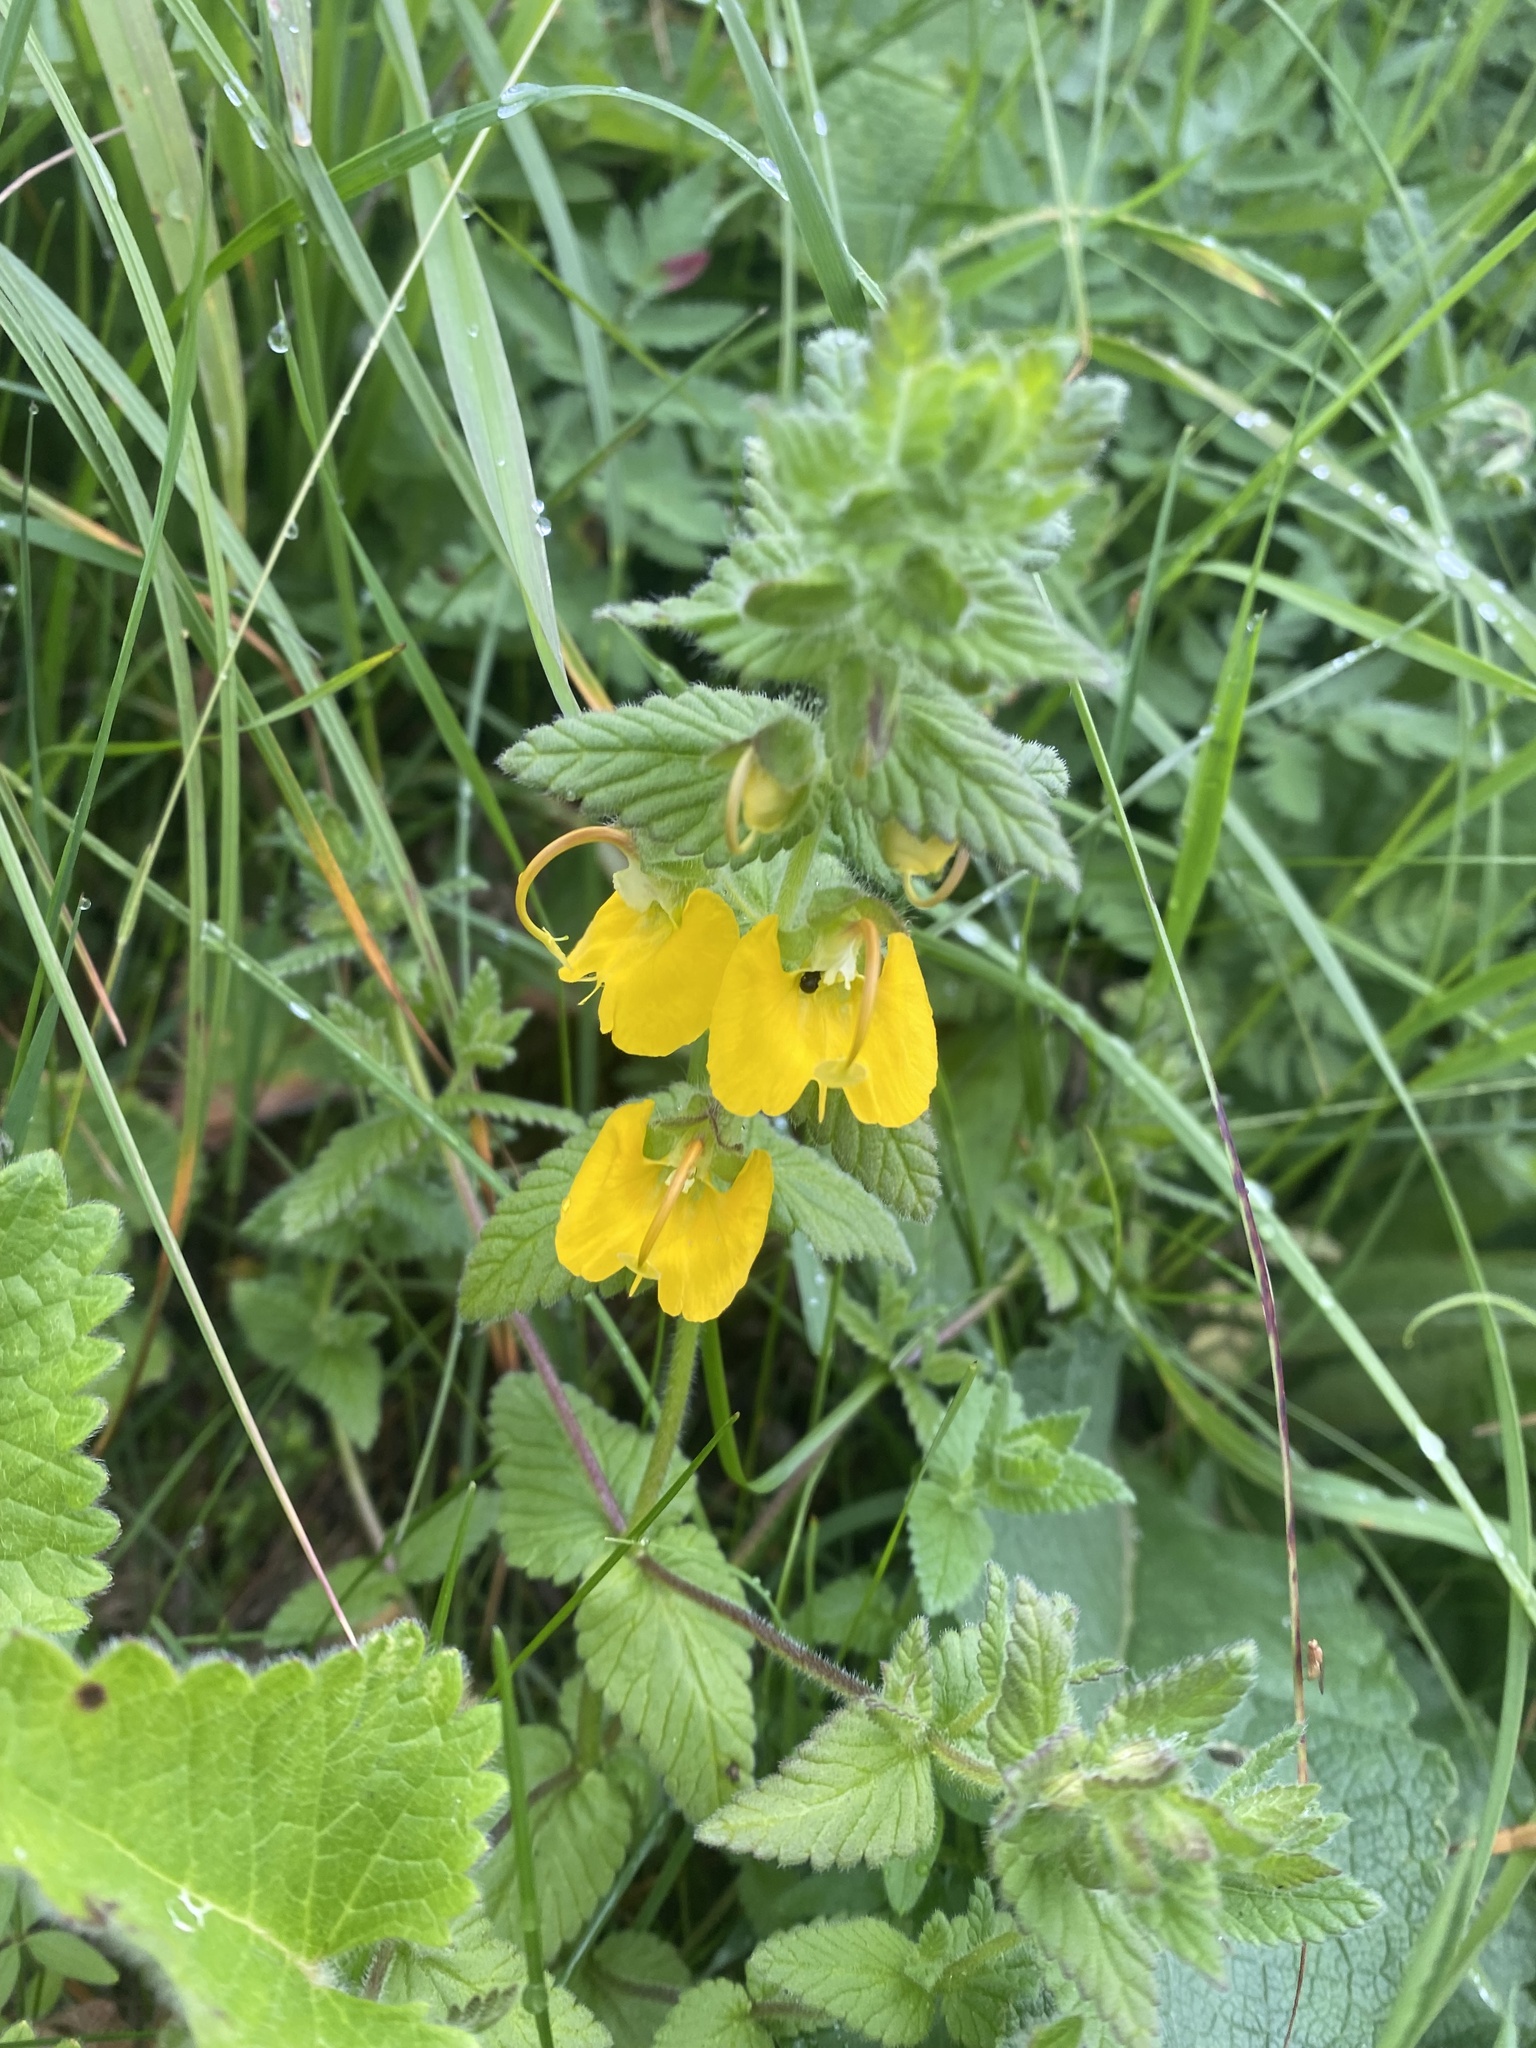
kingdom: Plantae
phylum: Tracheophyta
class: Magnoliopsida
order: Lamiales
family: Orobanchaceae
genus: Rhynchocorys
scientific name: Rhynchocorys orientalis
